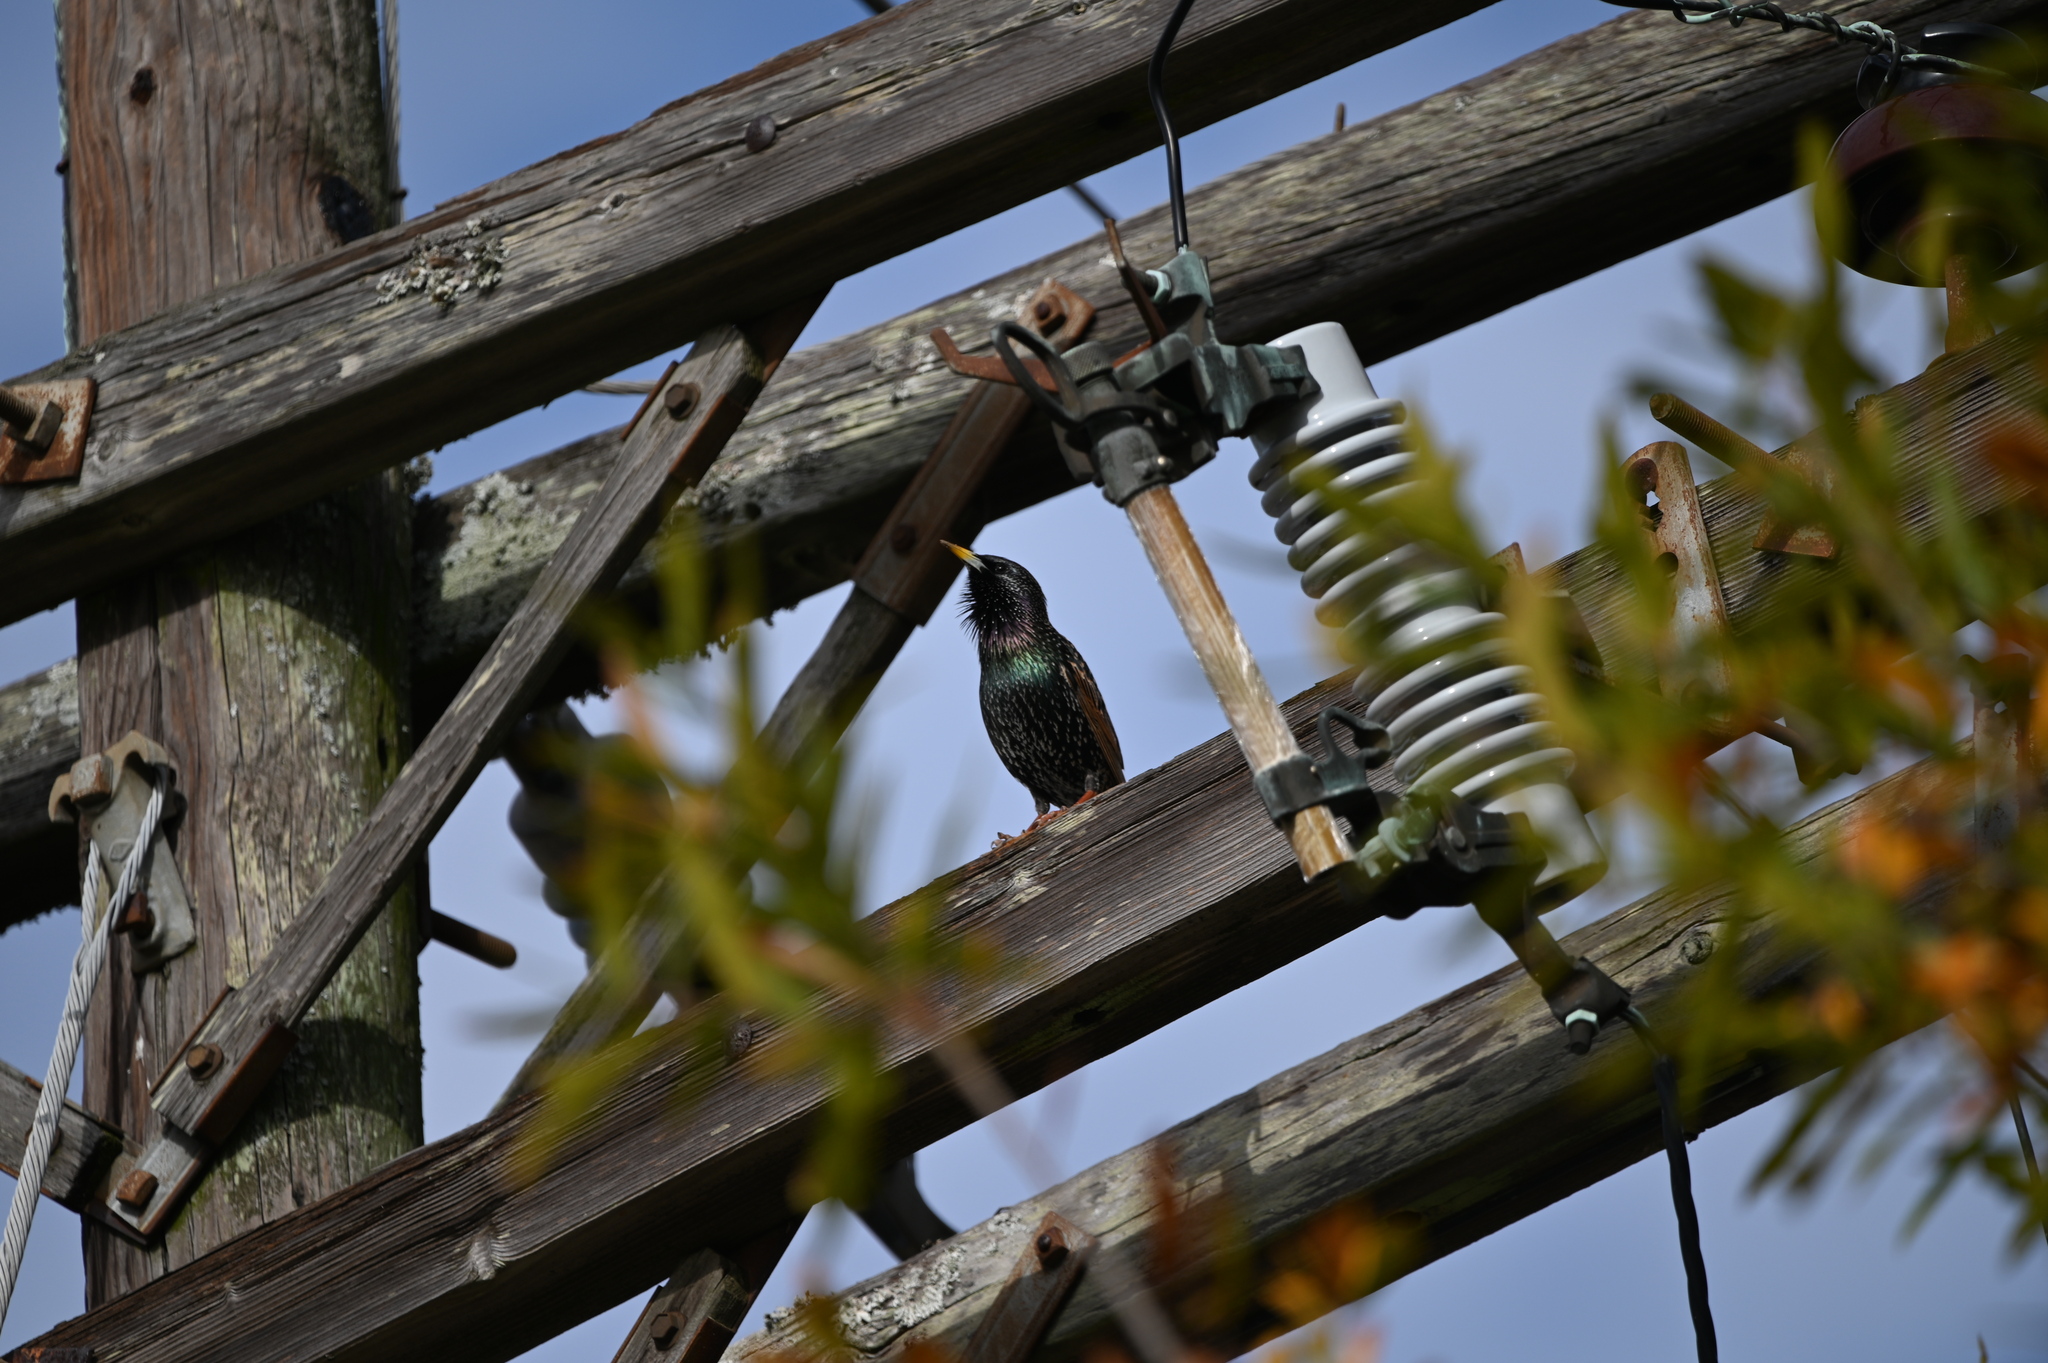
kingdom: Animalia
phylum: Chordata
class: Aves
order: Passeriformes
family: Sturnidae
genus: Sturnus
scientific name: Sturnus vulgaris
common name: Common starling
